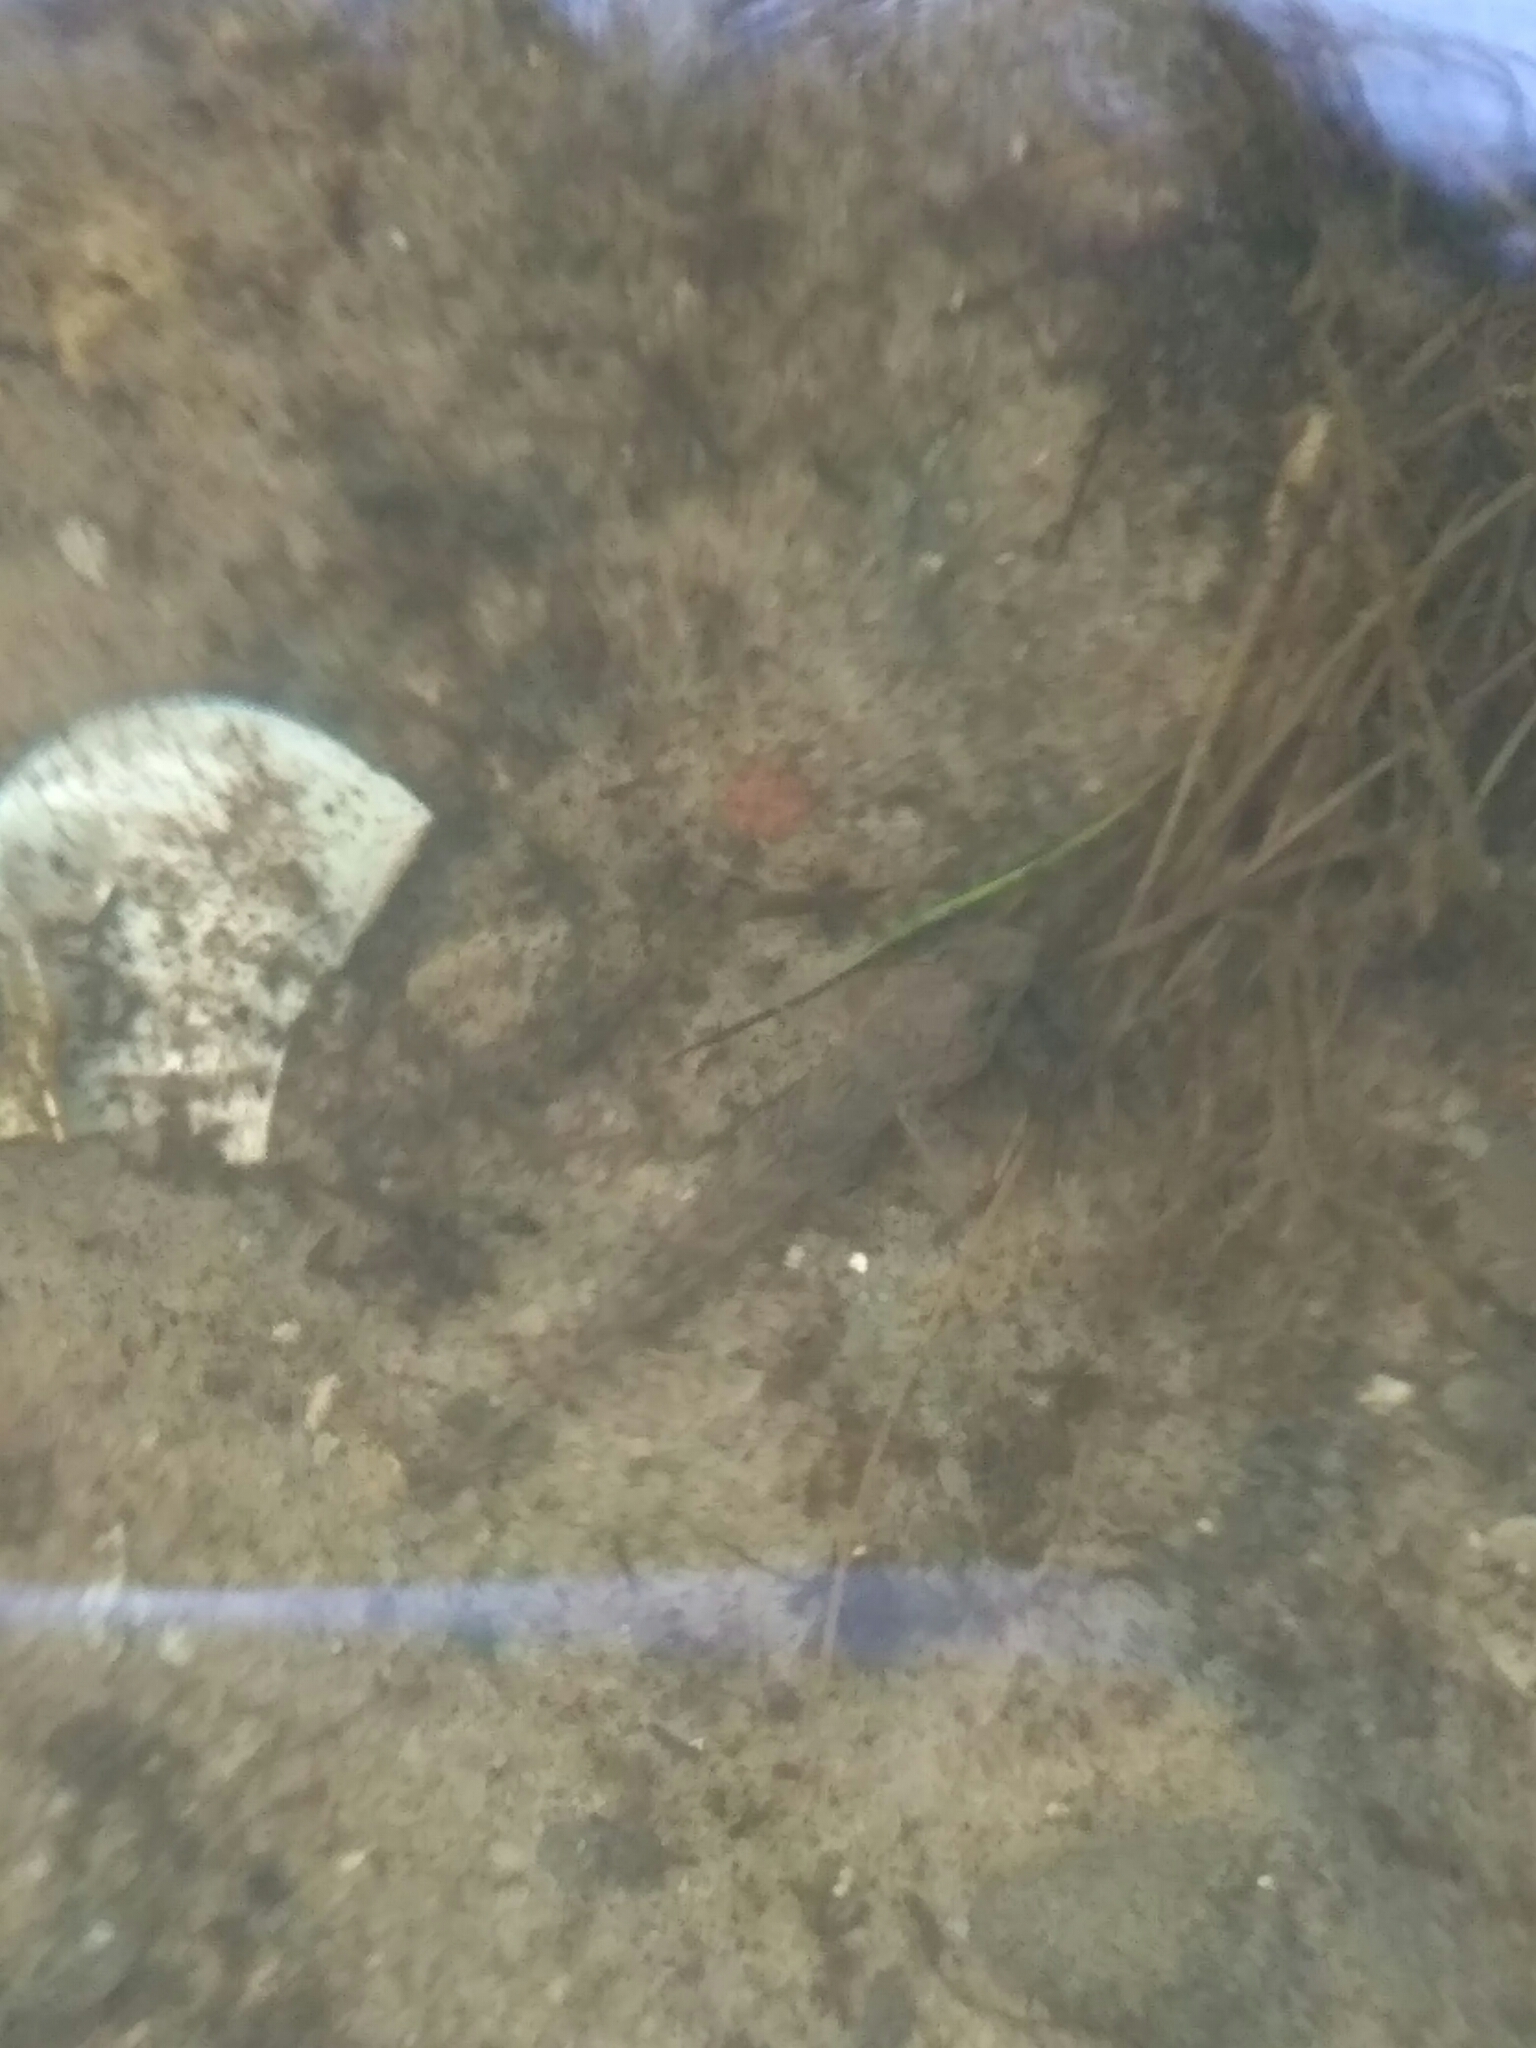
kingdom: Animalia
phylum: Chordata
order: Perciformes
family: Gobiidae
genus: Neogobius
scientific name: Neogobius fluviatilis
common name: Monkey goby
